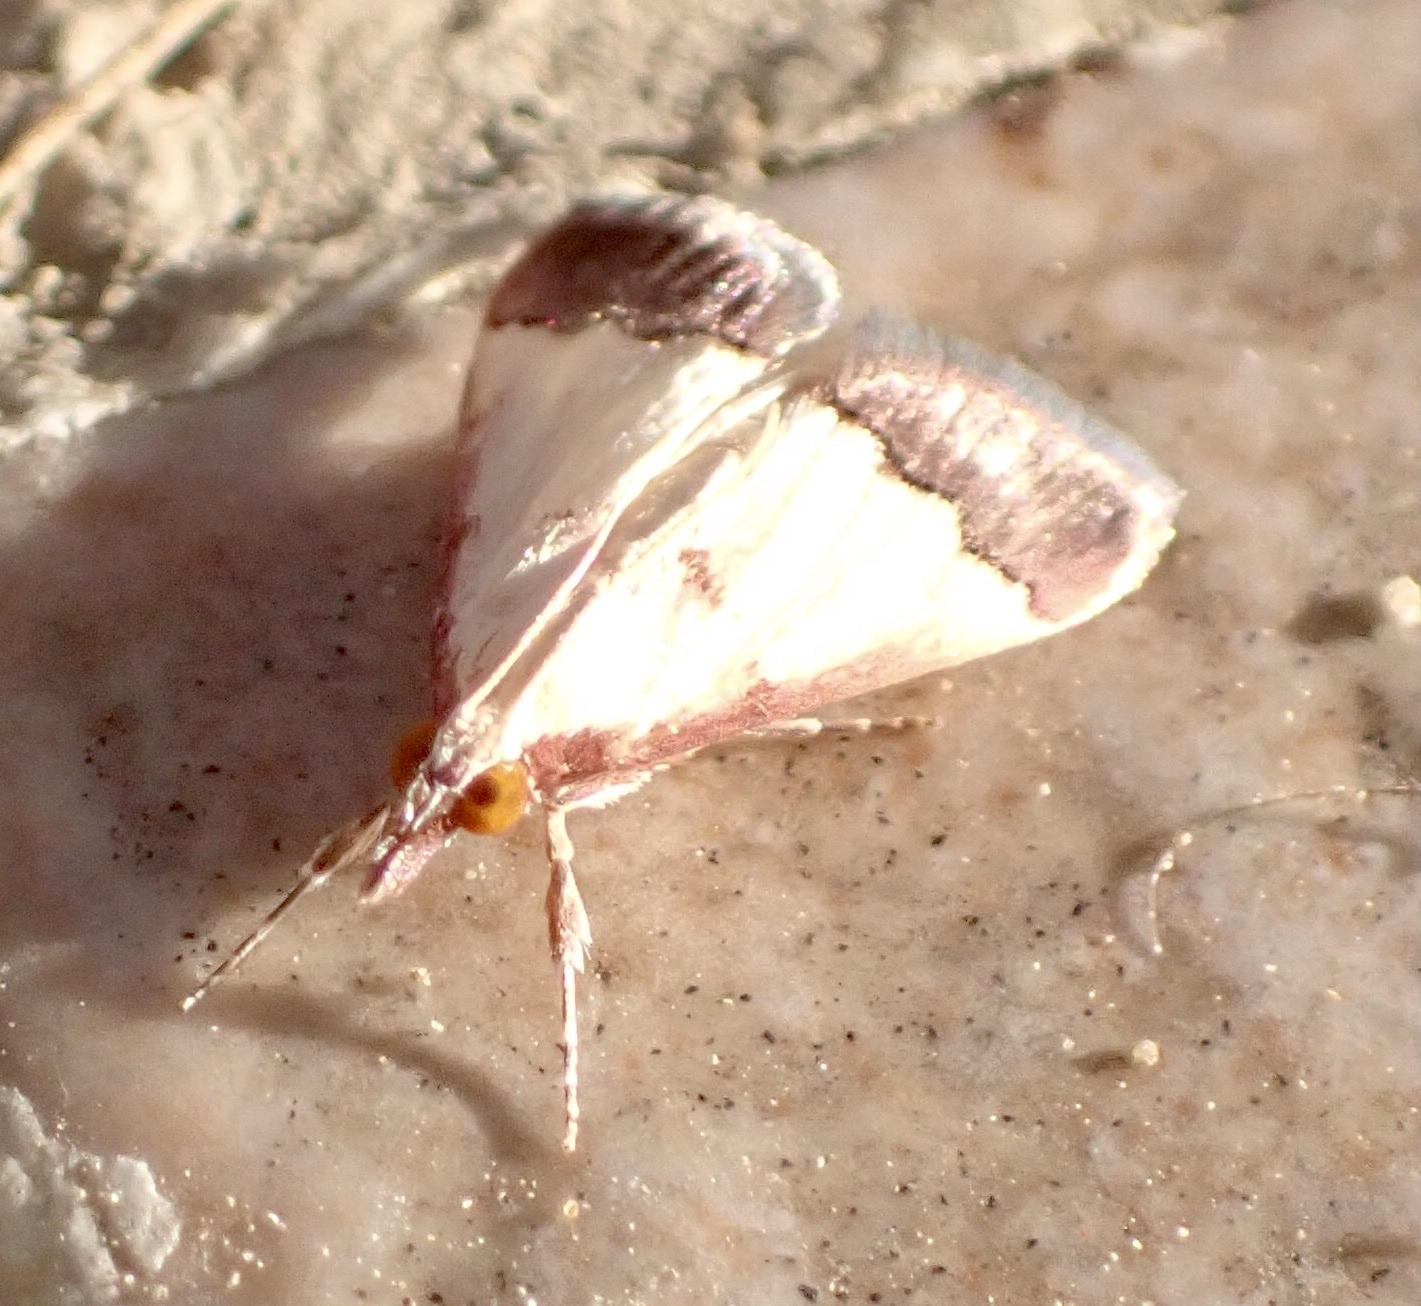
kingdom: Animalia
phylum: Arthropoda
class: Insecta
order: Lepidoptera
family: Crambidae
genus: Autocharis
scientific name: Autocharis rubricostalis
